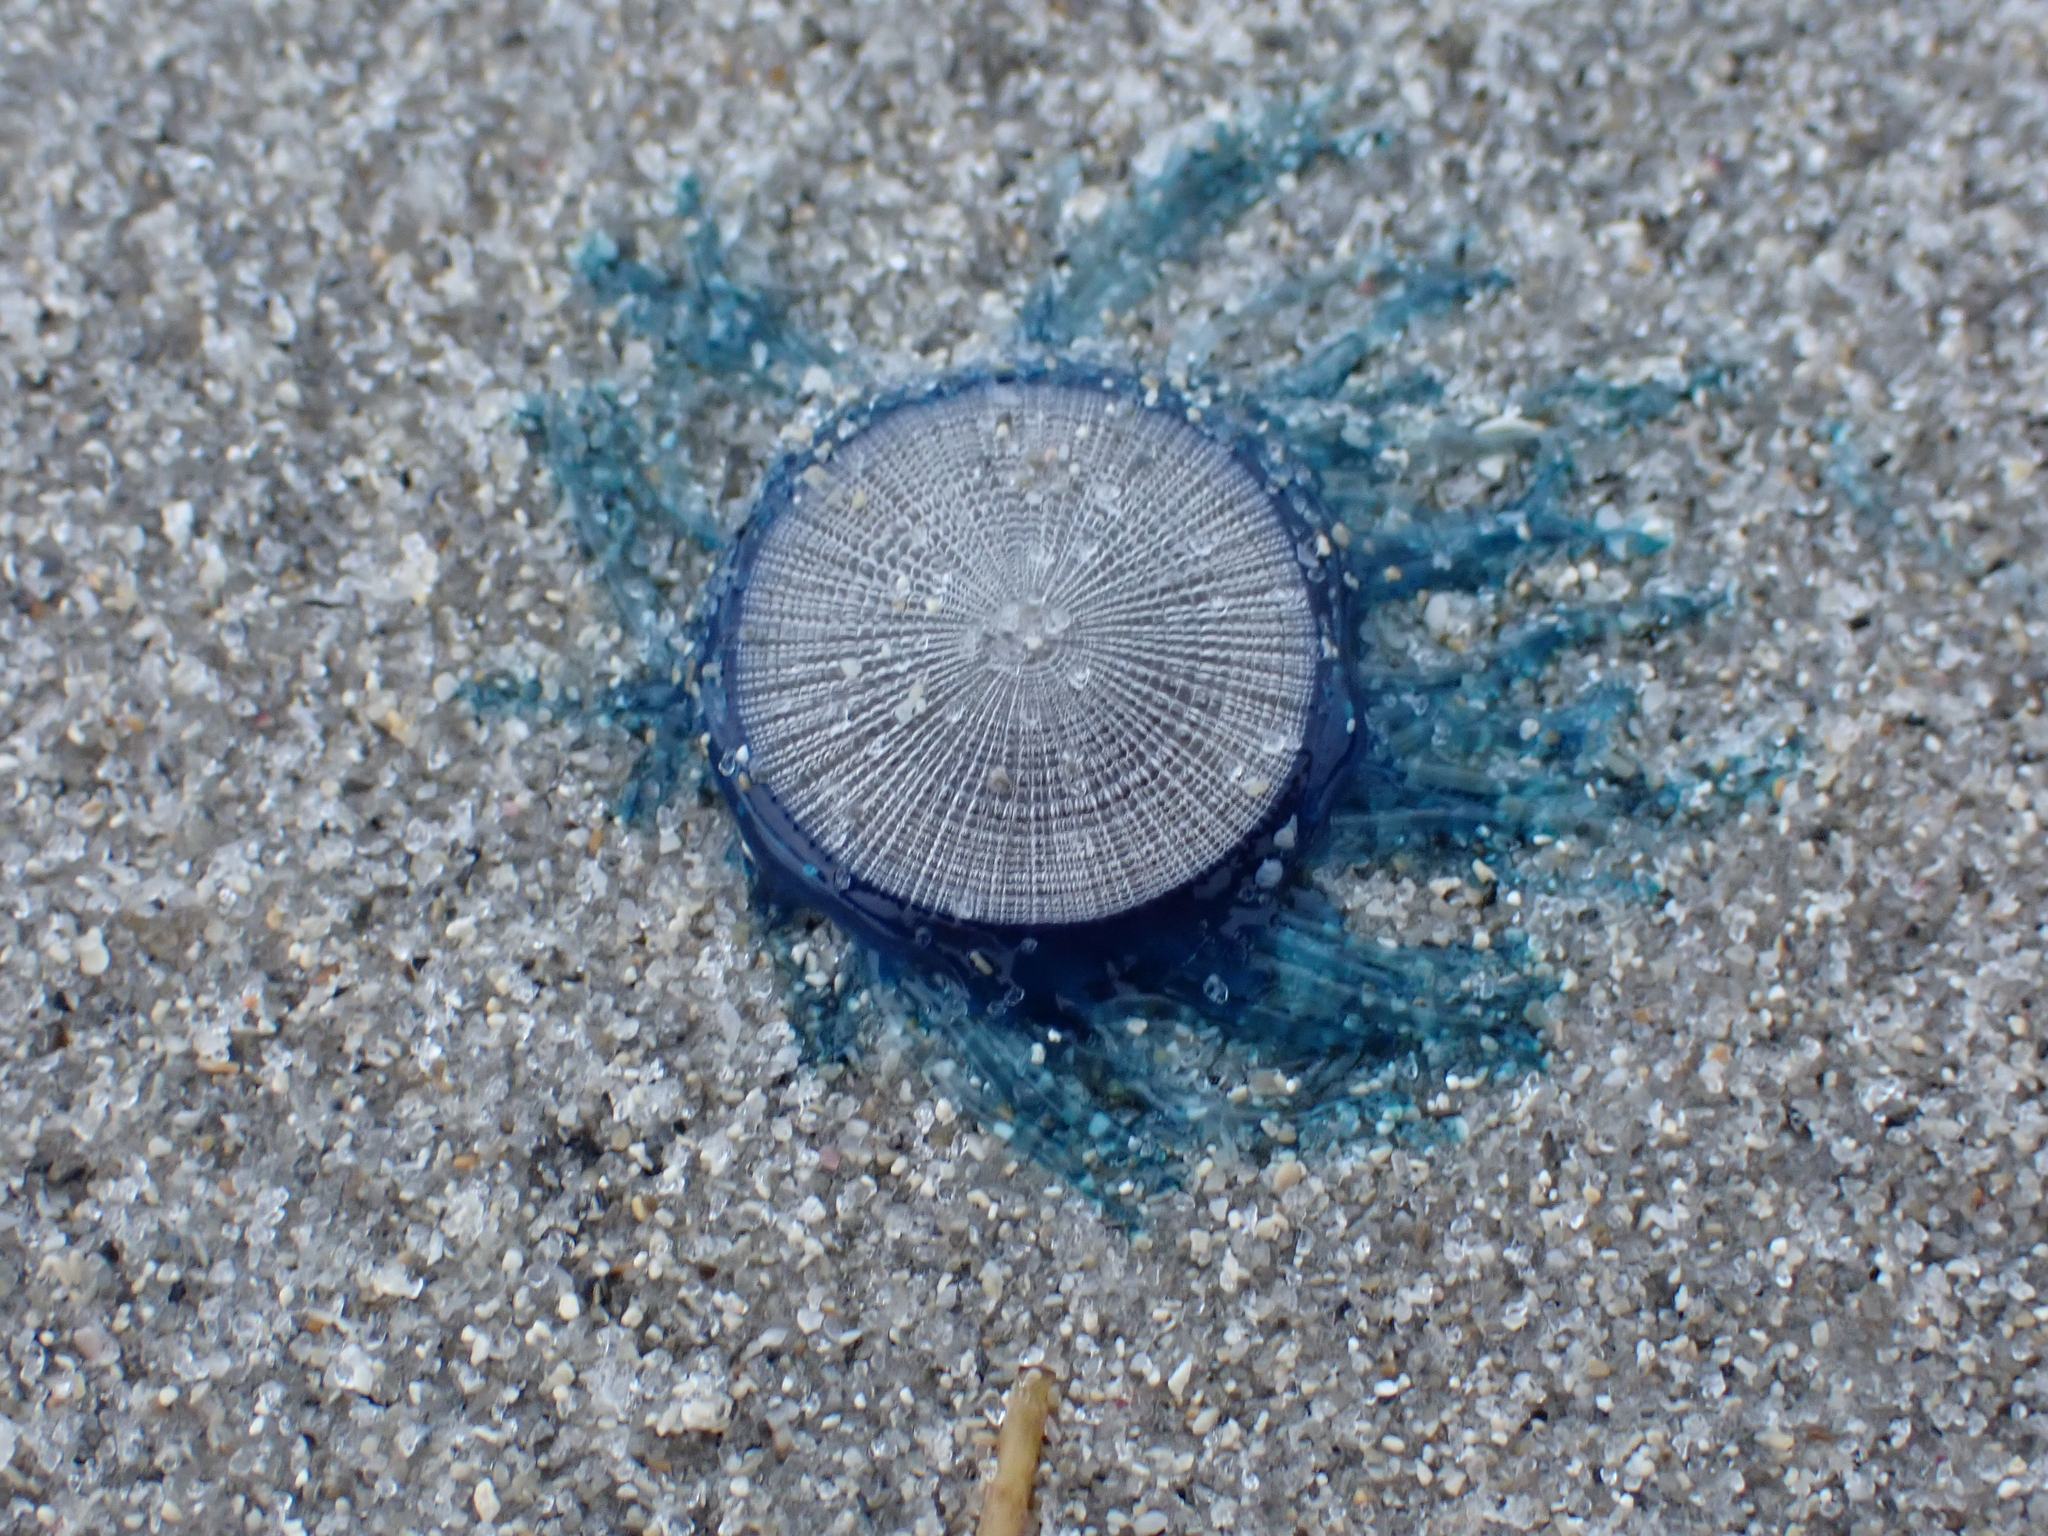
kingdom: Animalia
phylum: Cnidaria
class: Hydrozoa
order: Anthoathecata
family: Porpitidae
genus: Porpita
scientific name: Porpita porpita
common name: Blue button
